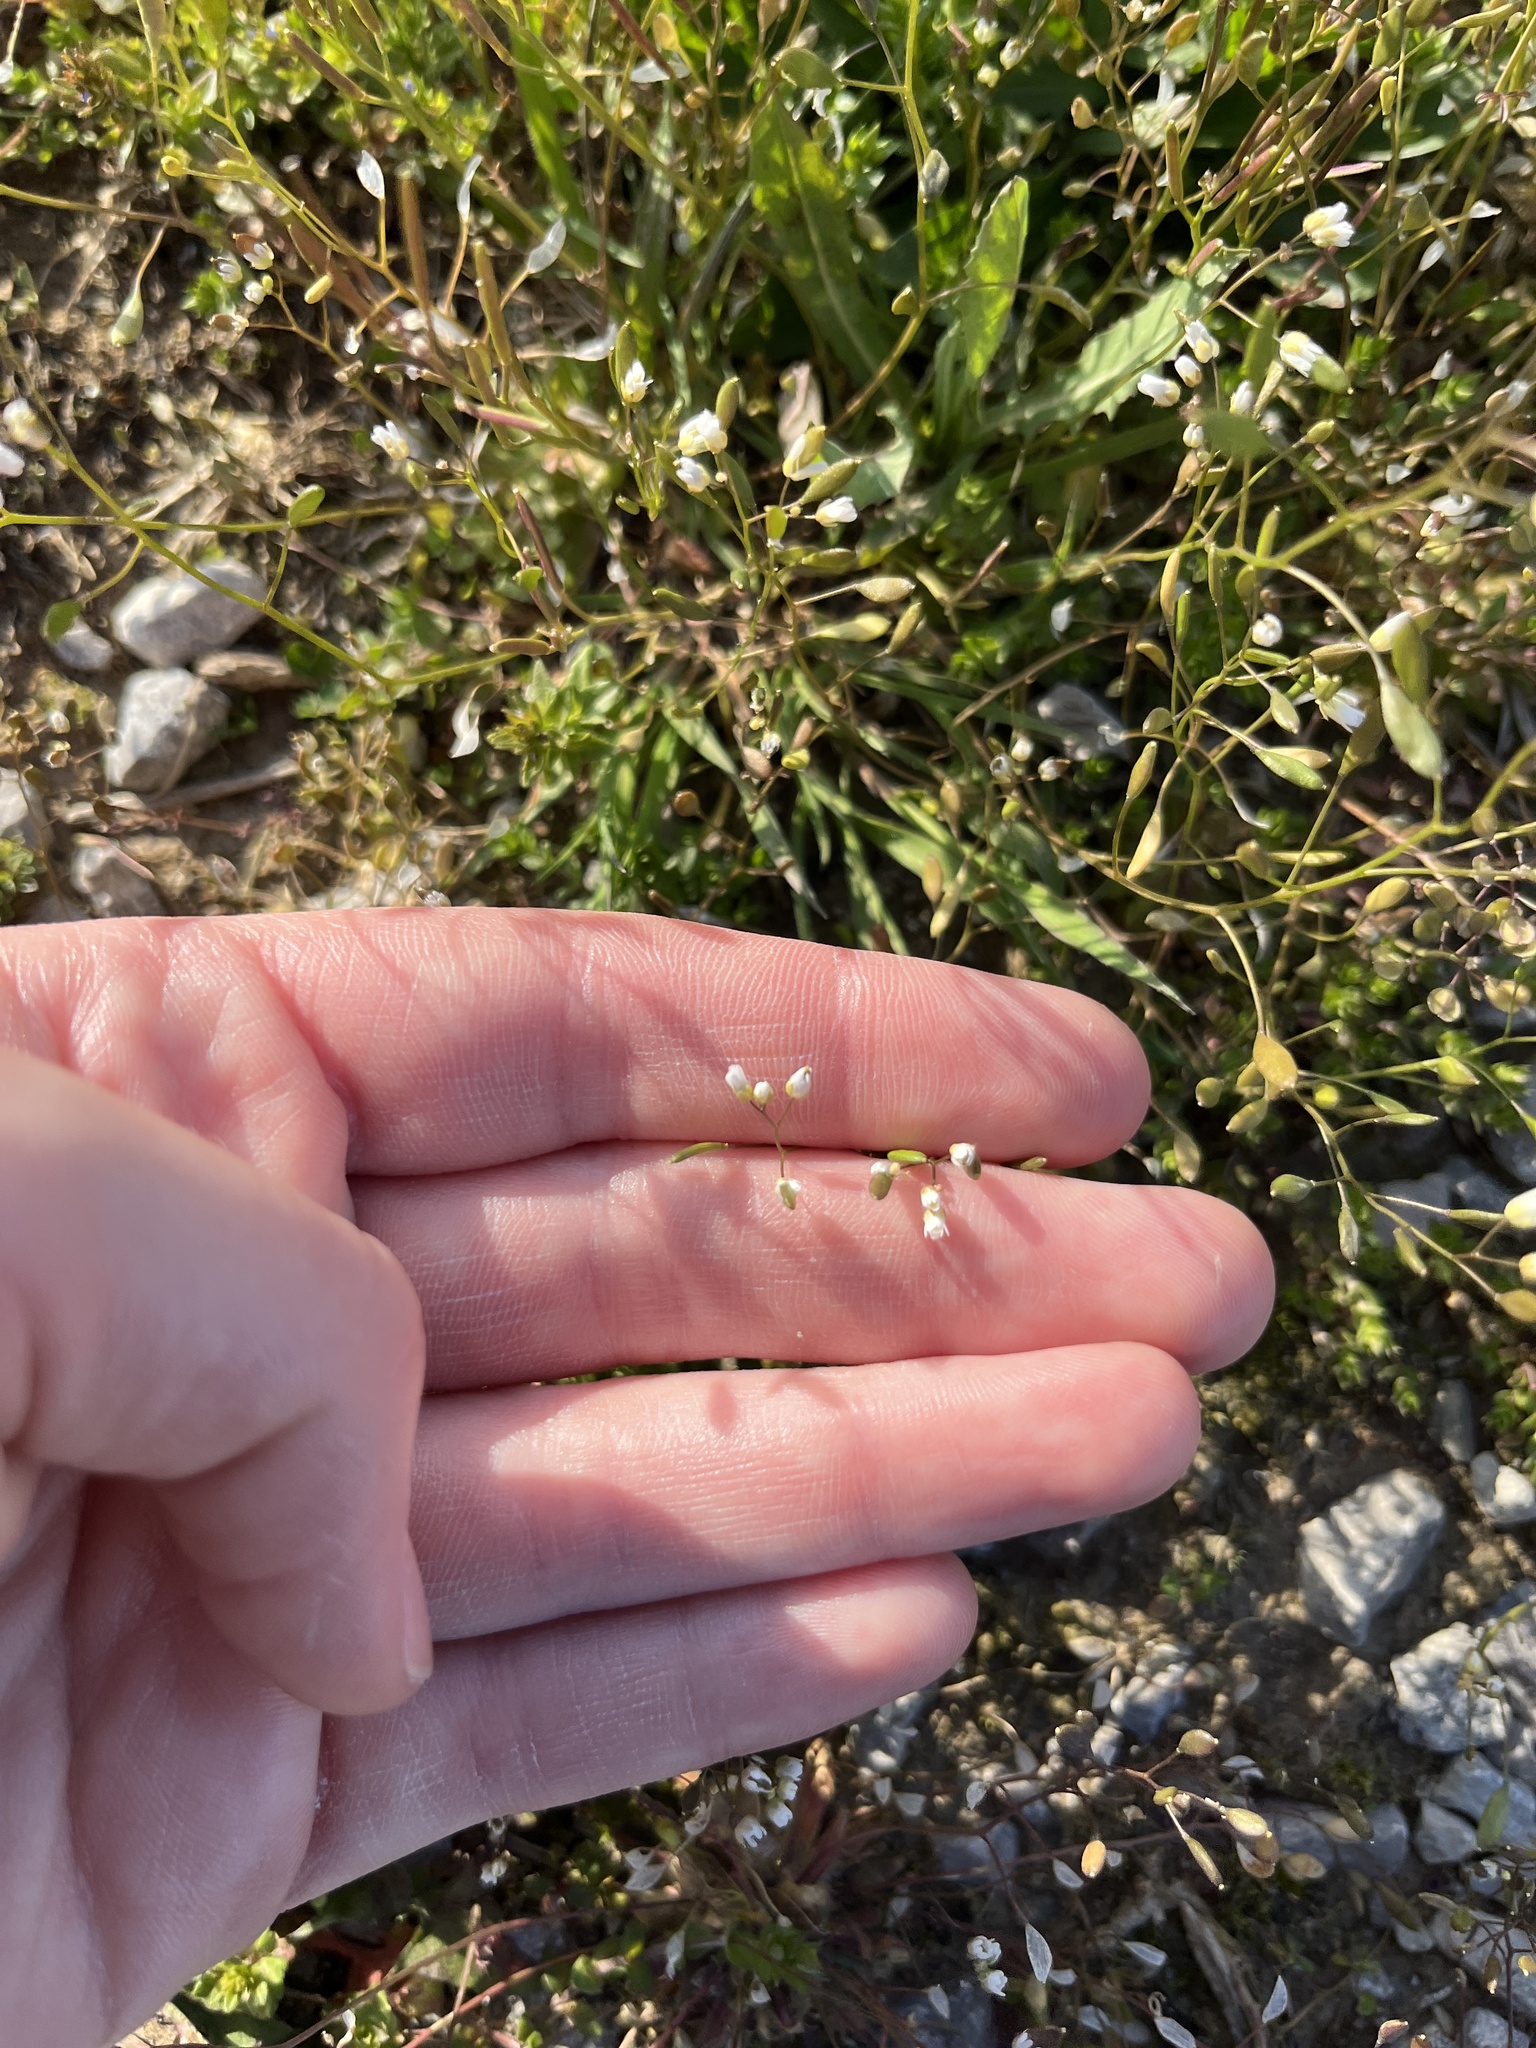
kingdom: Plantae
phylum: Tracheophyta
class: Magnoliopsida
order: Brassicales
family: Brassicaceae
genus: Draba
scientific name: Draba verna
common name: Spring draba
